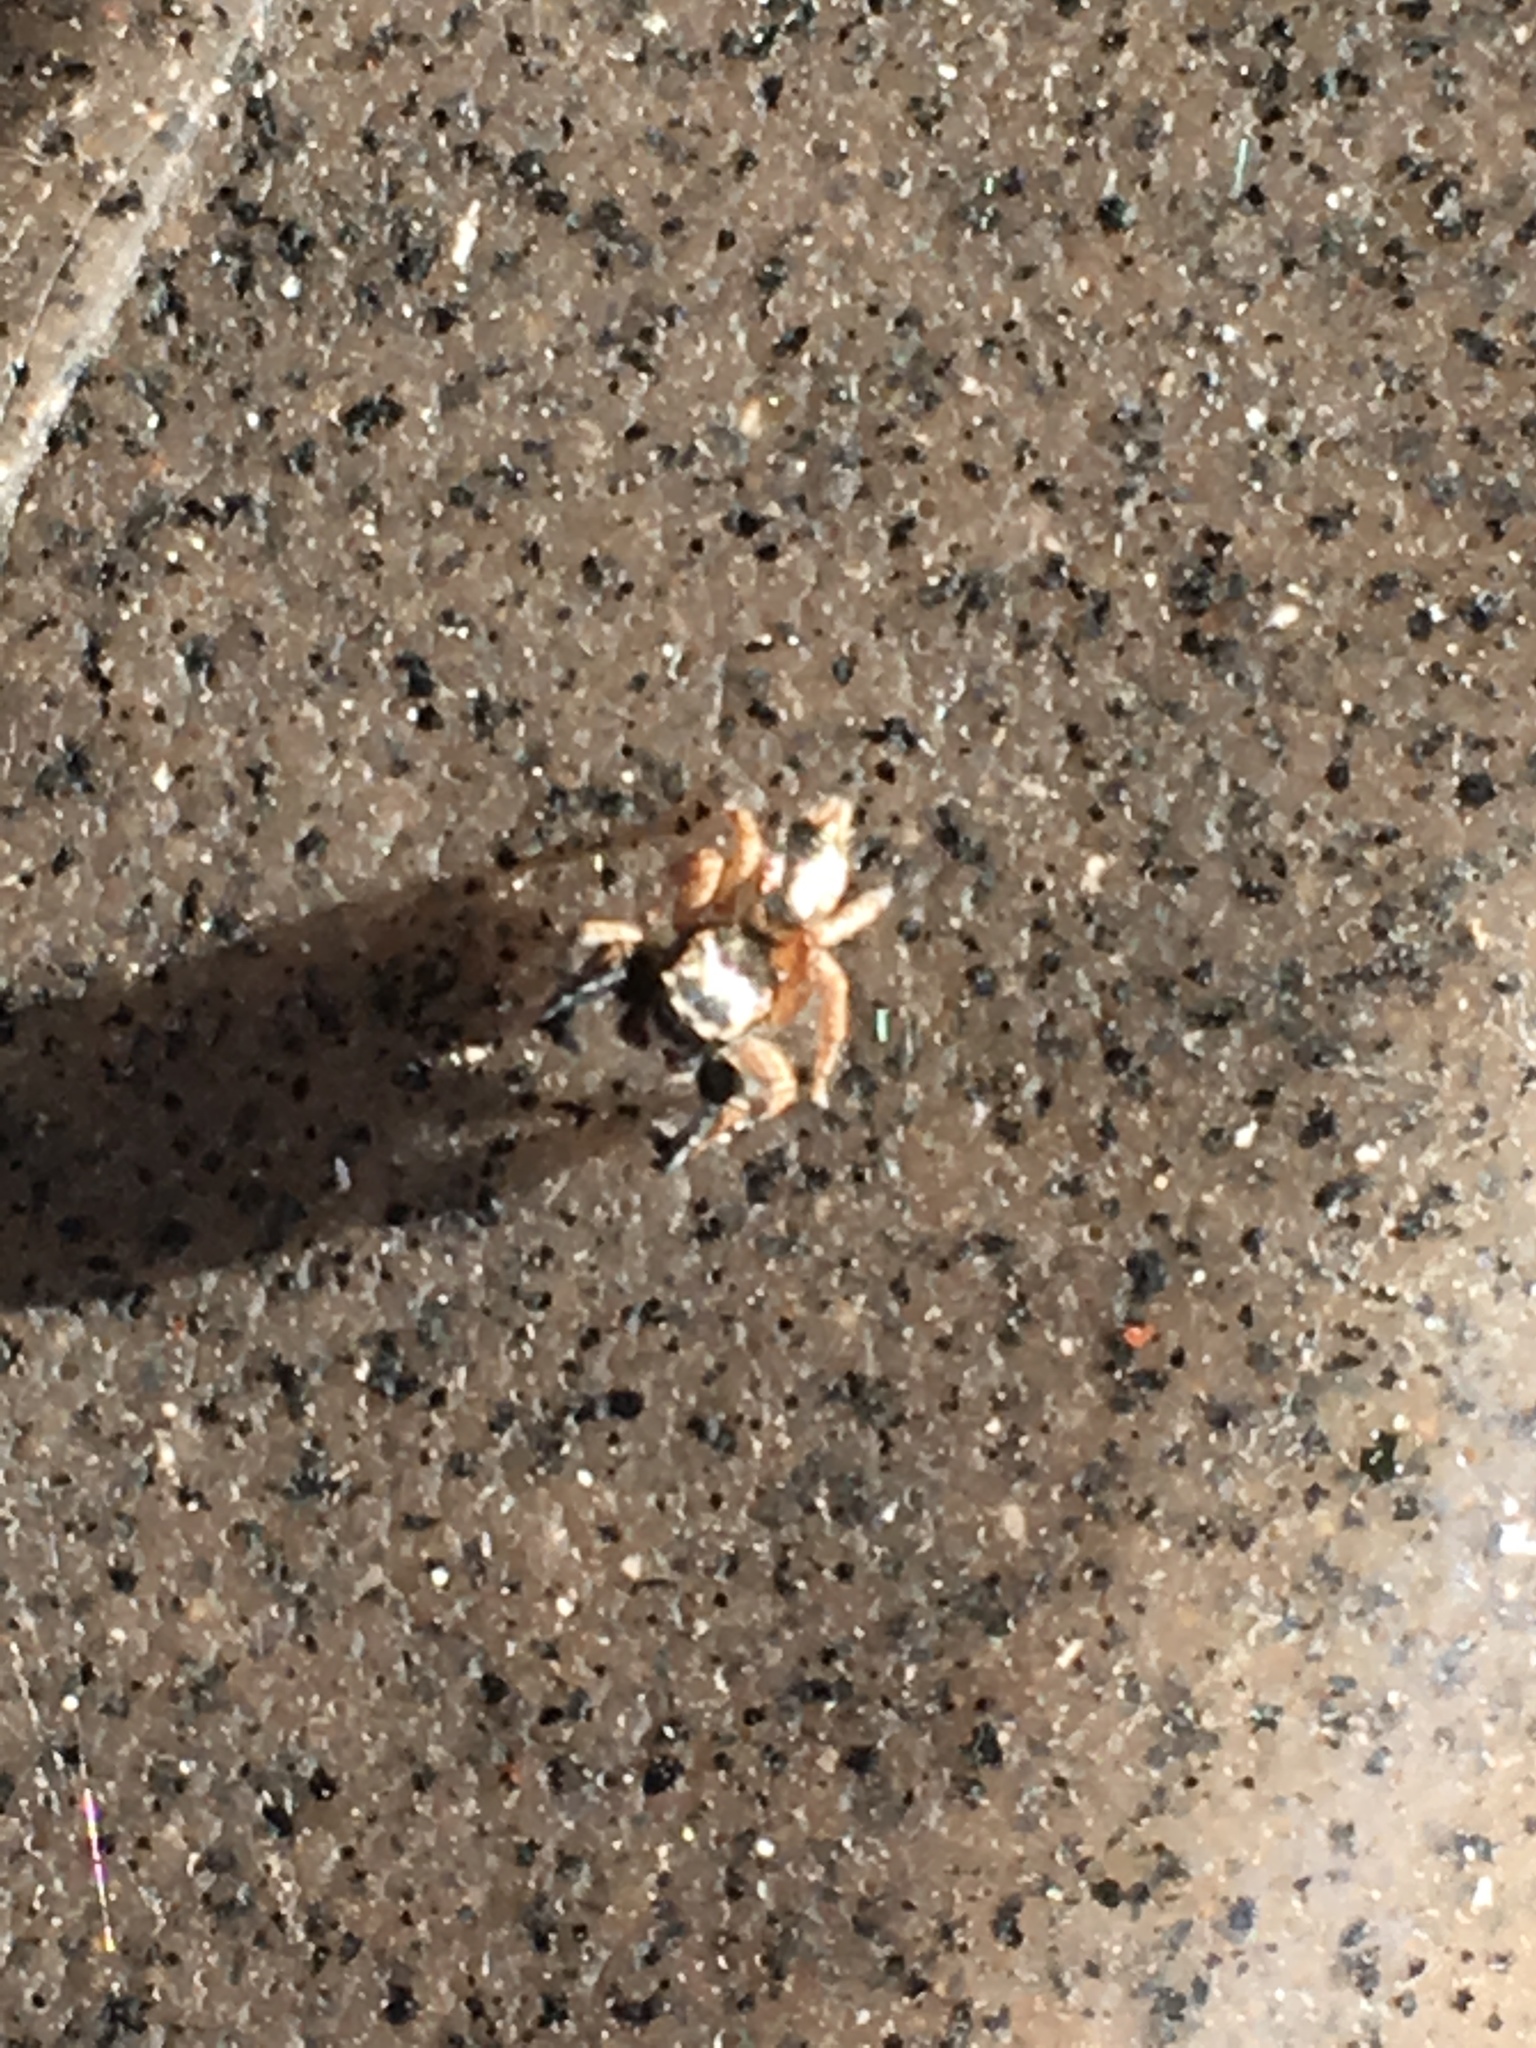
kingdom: Animalia
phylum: Arthropoda
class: Arachnida
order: Araneae
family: Salticidae
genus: Habronattus
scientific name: Habronattus hirsutus
